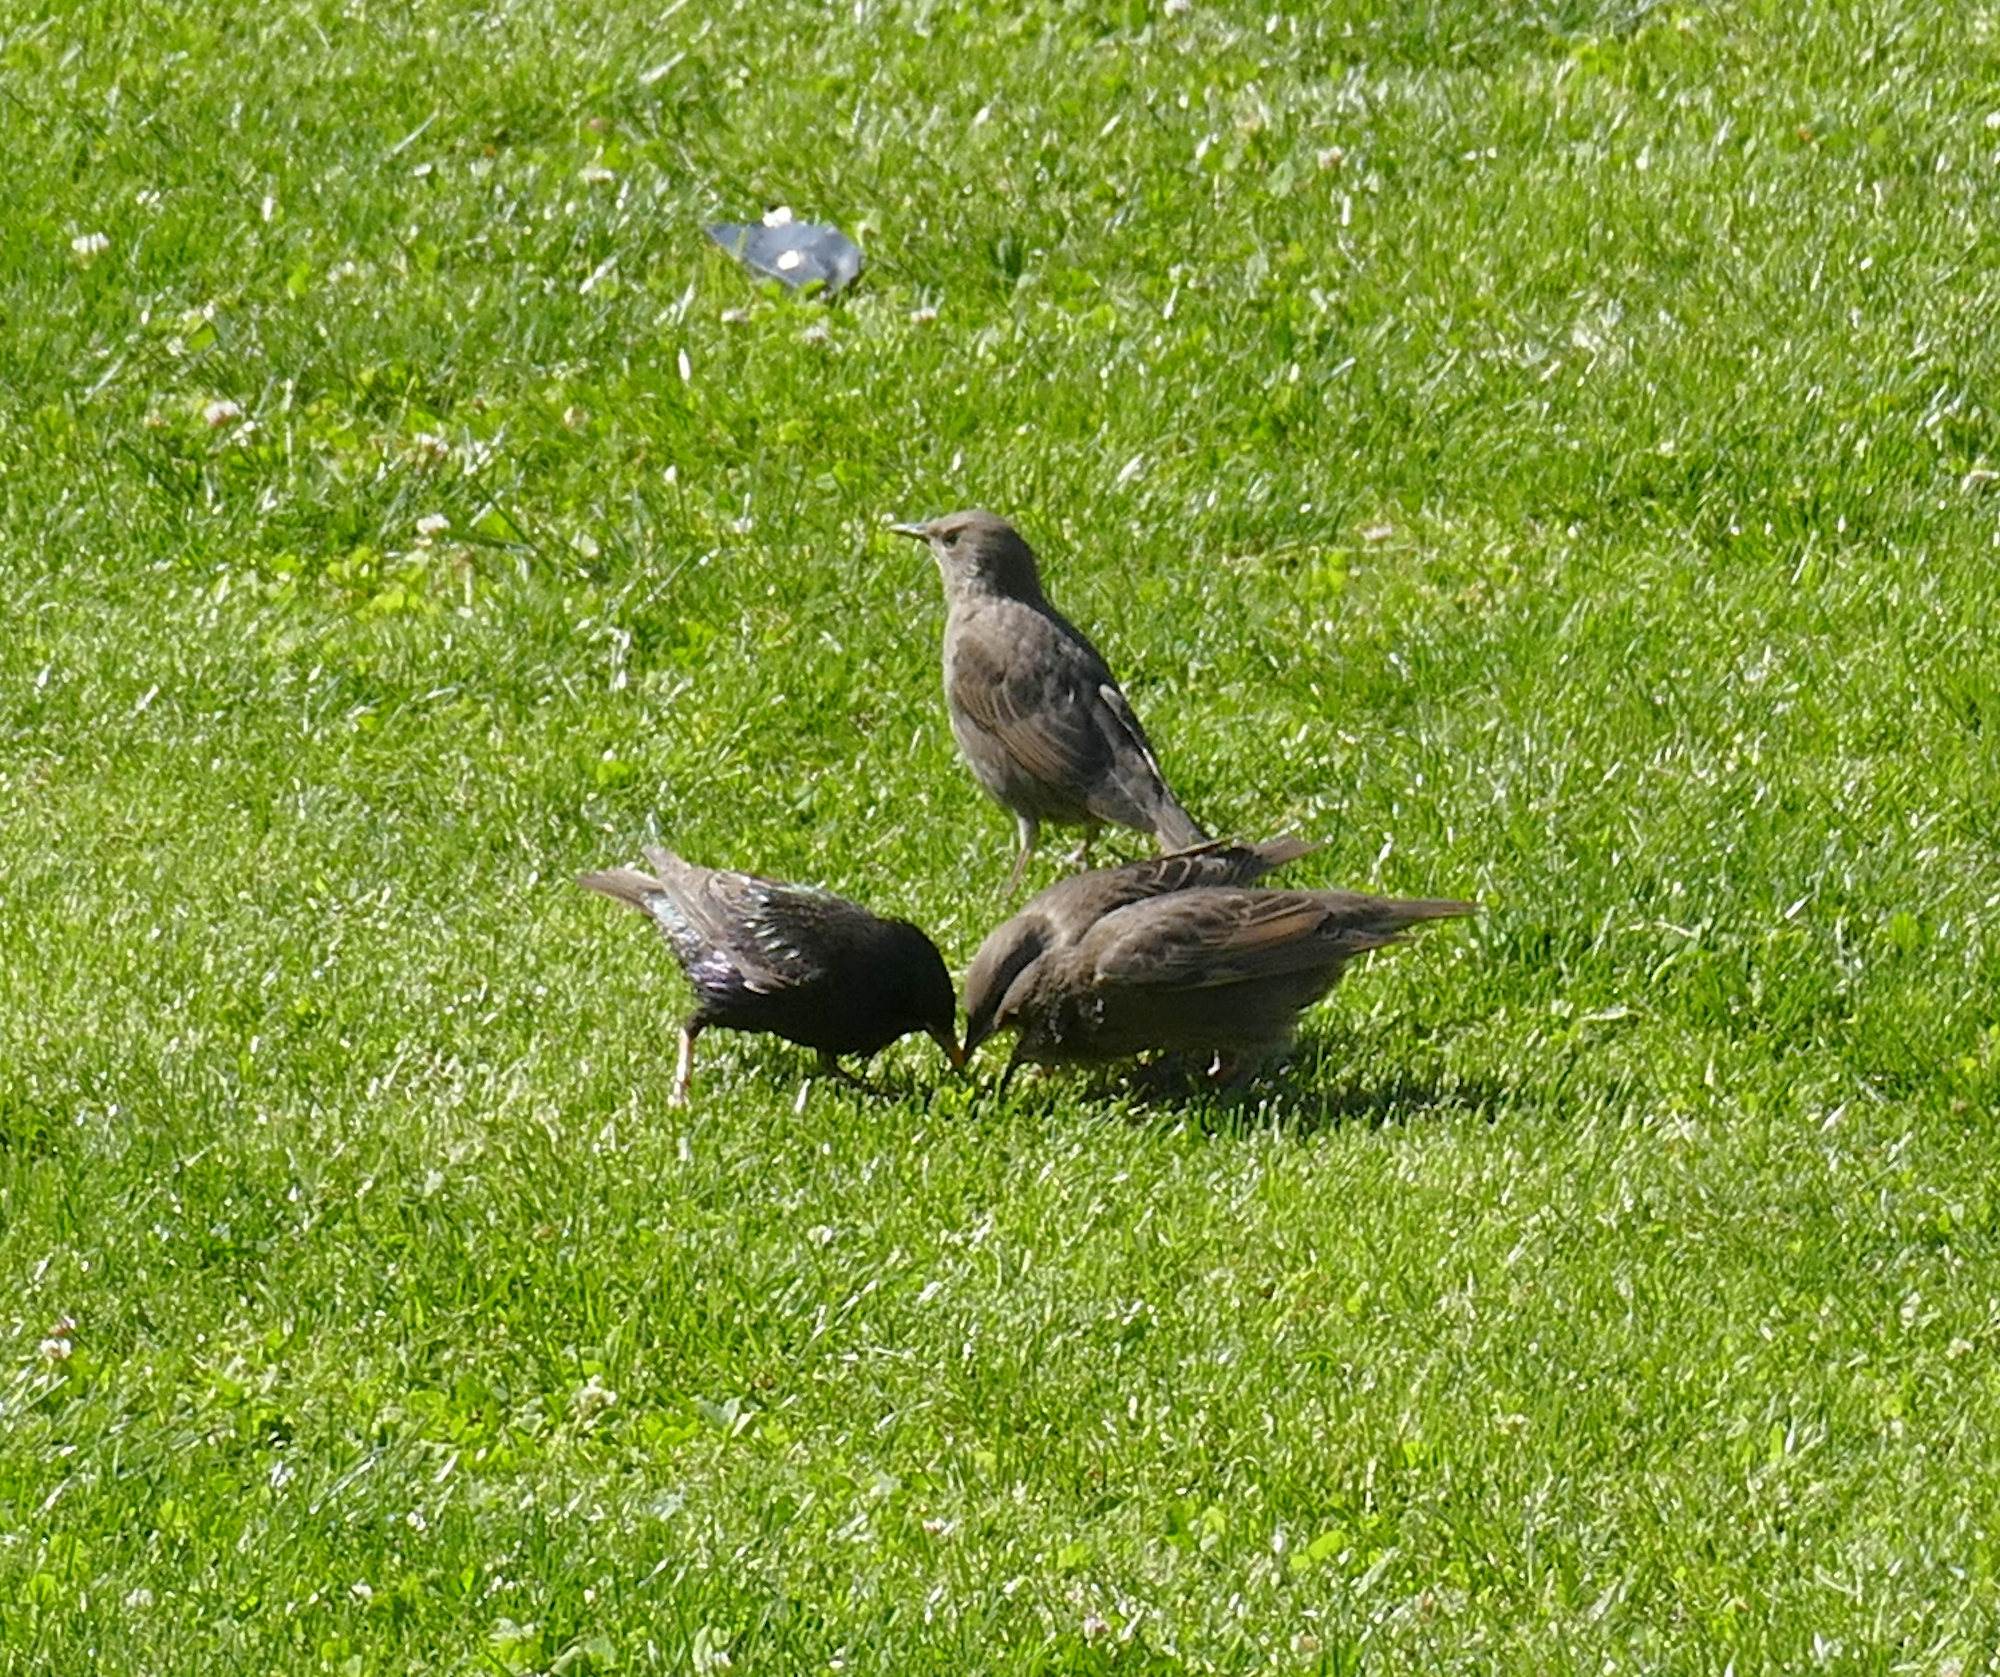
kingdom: Animalia
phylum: Chordata
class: Aves
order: Passeriformes
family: Sturnidae
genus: Sturnus
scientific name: Sturnus vulgaris
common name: Common starling
